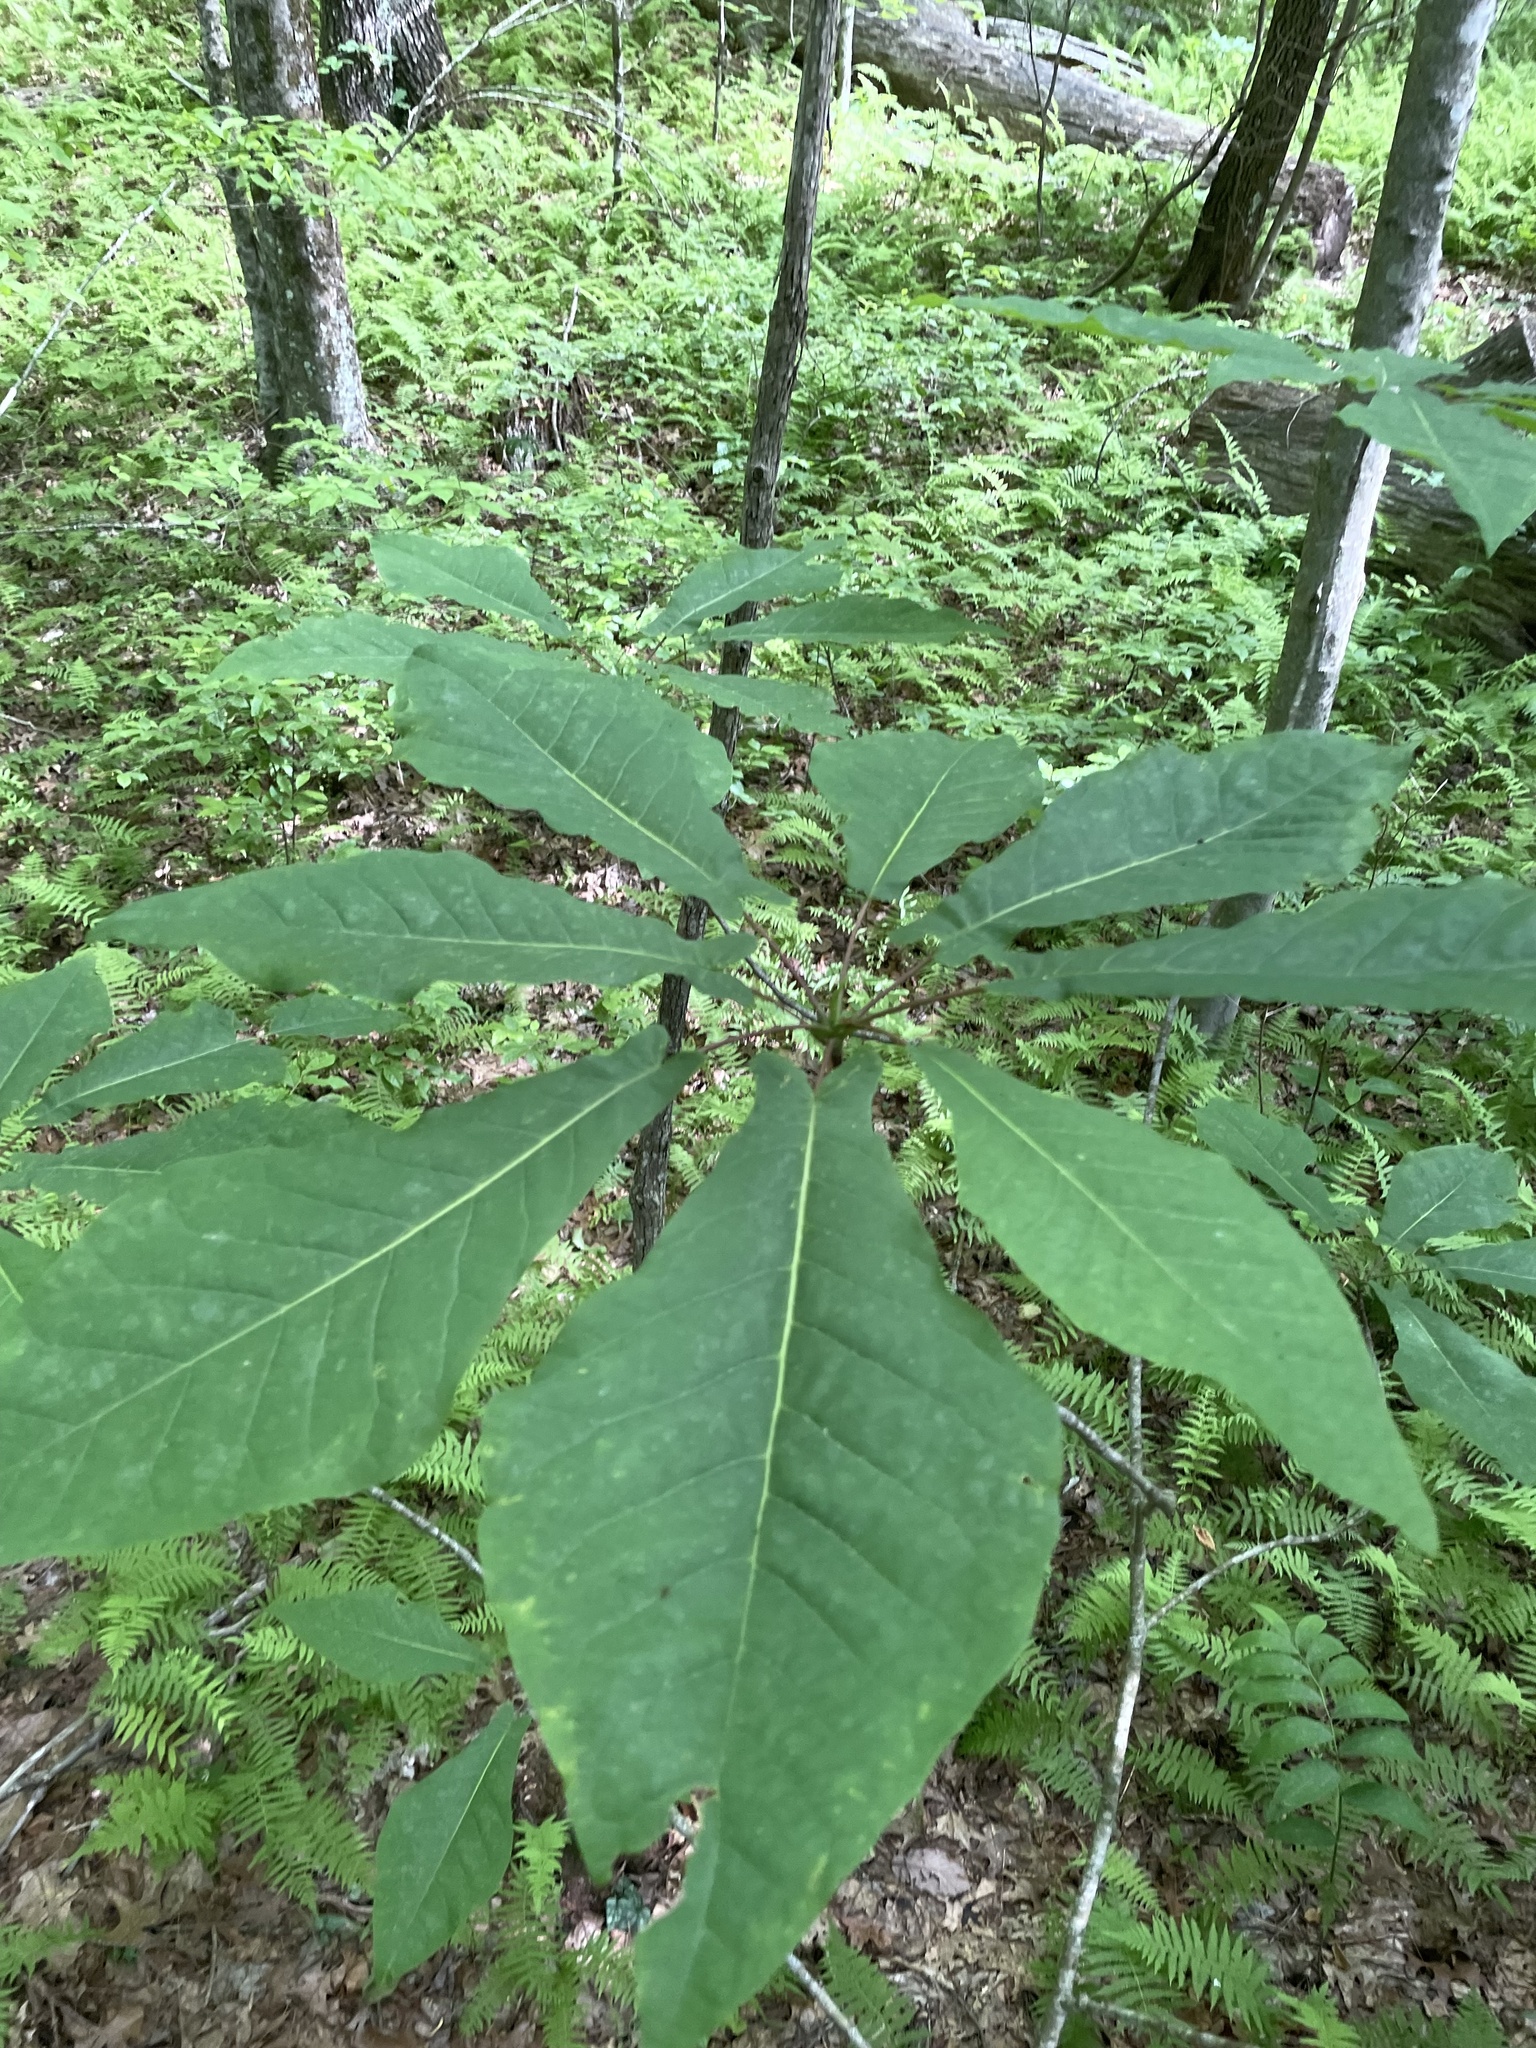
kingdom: Plantae
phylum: Tracheophyta
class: Magnoliopsida
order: Magnoliales
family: Magnoliaceae
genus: Magnolia
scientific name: Magnolia fraseri
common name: Fraser's magnolia
